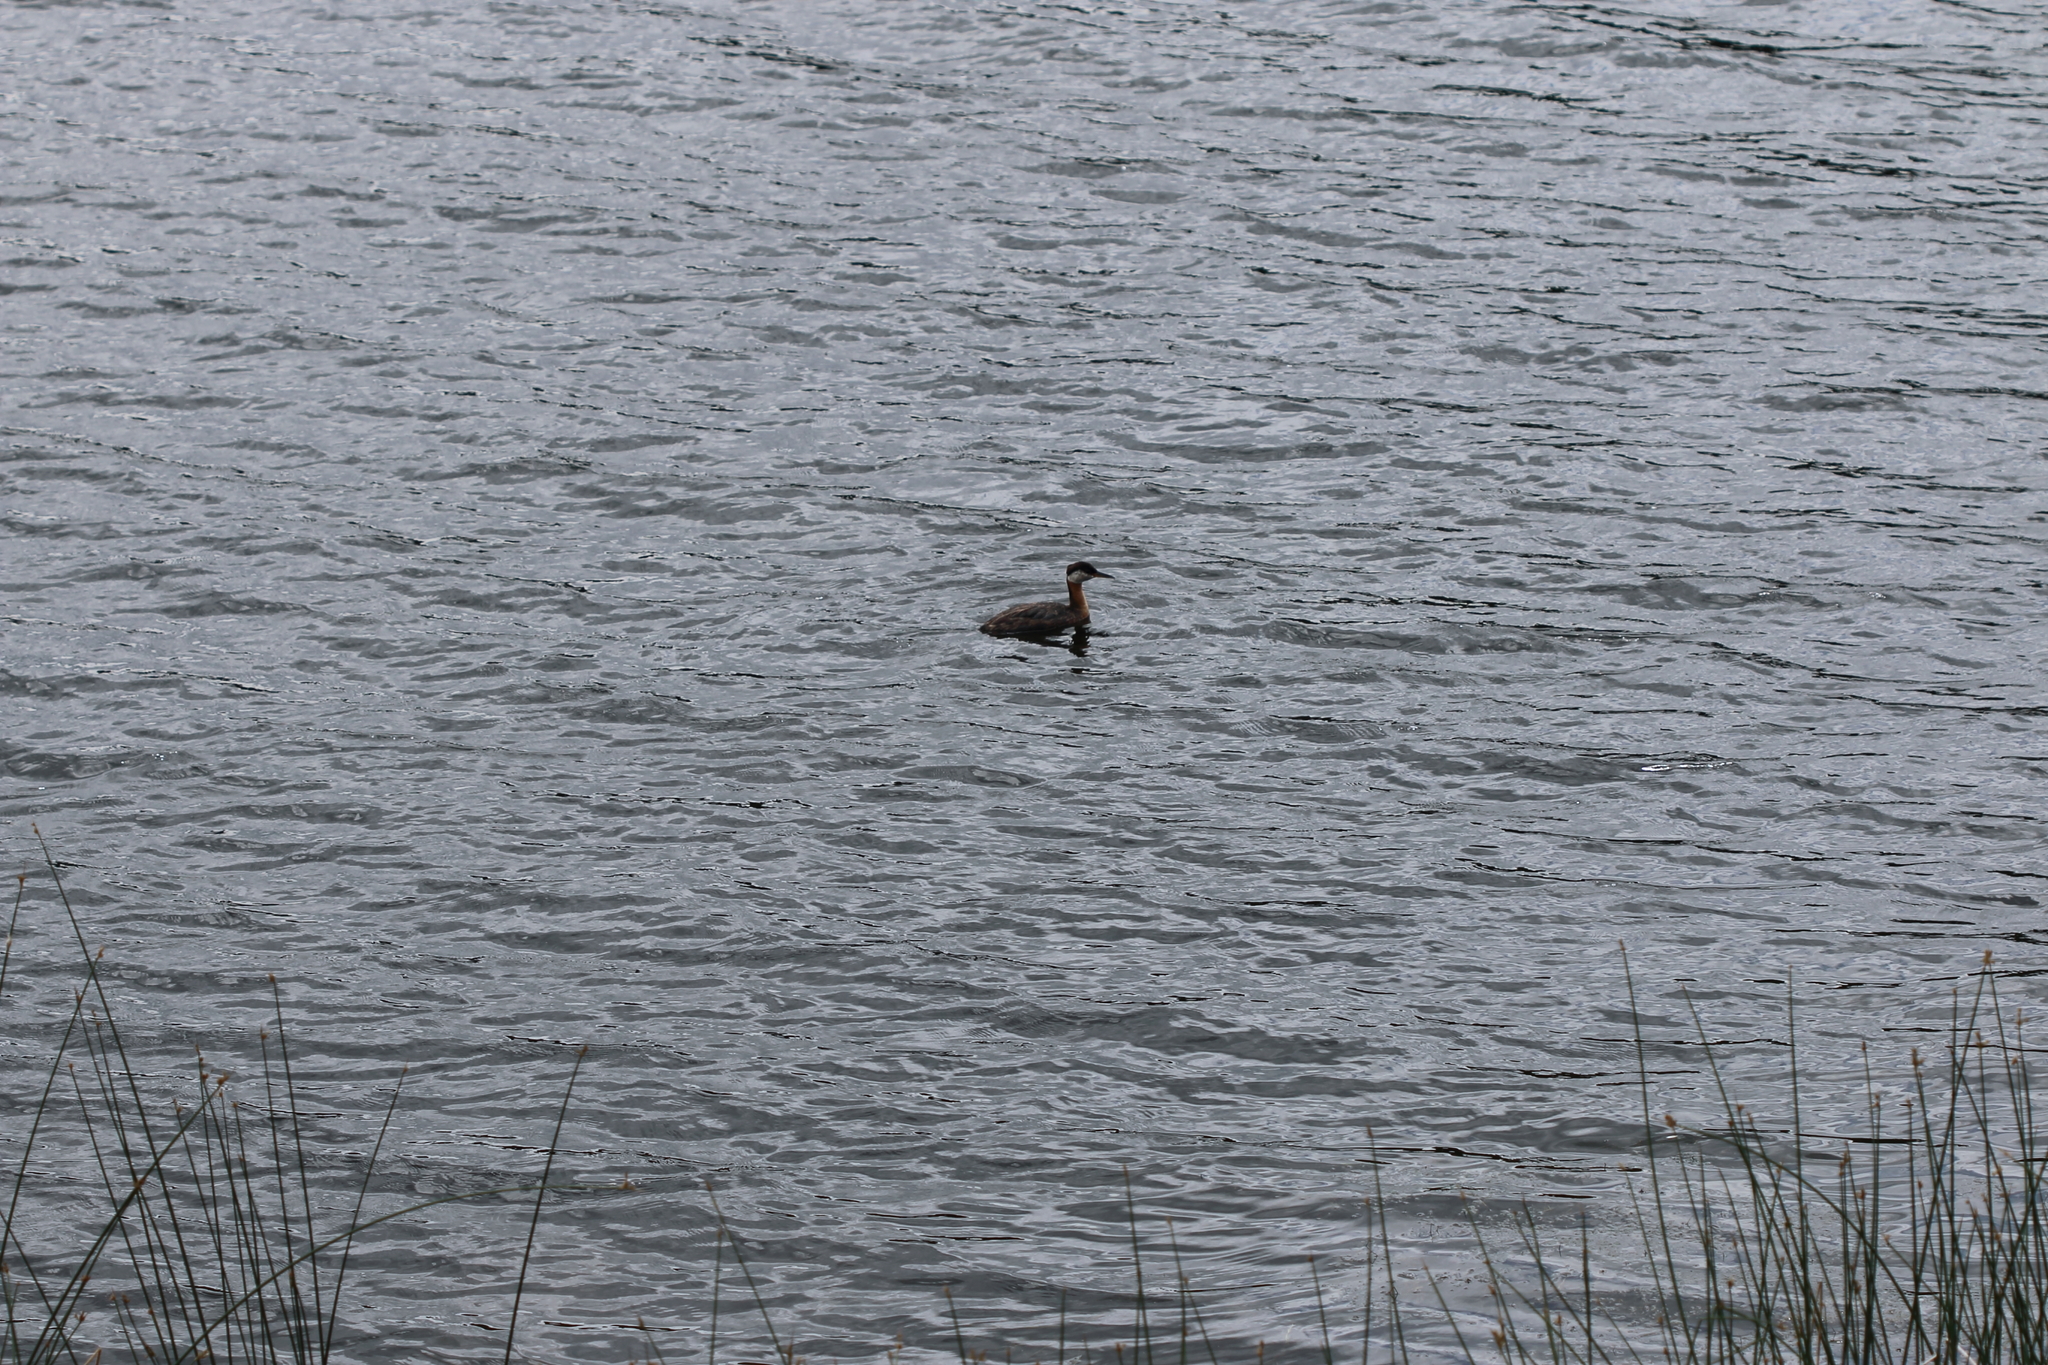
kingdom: Animalia
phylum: Chordata
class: Aves
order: Podicipediformes
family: Podicipedidae
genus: Podiceps
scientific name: Podiceps grisegena
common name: Red-necked grebe
